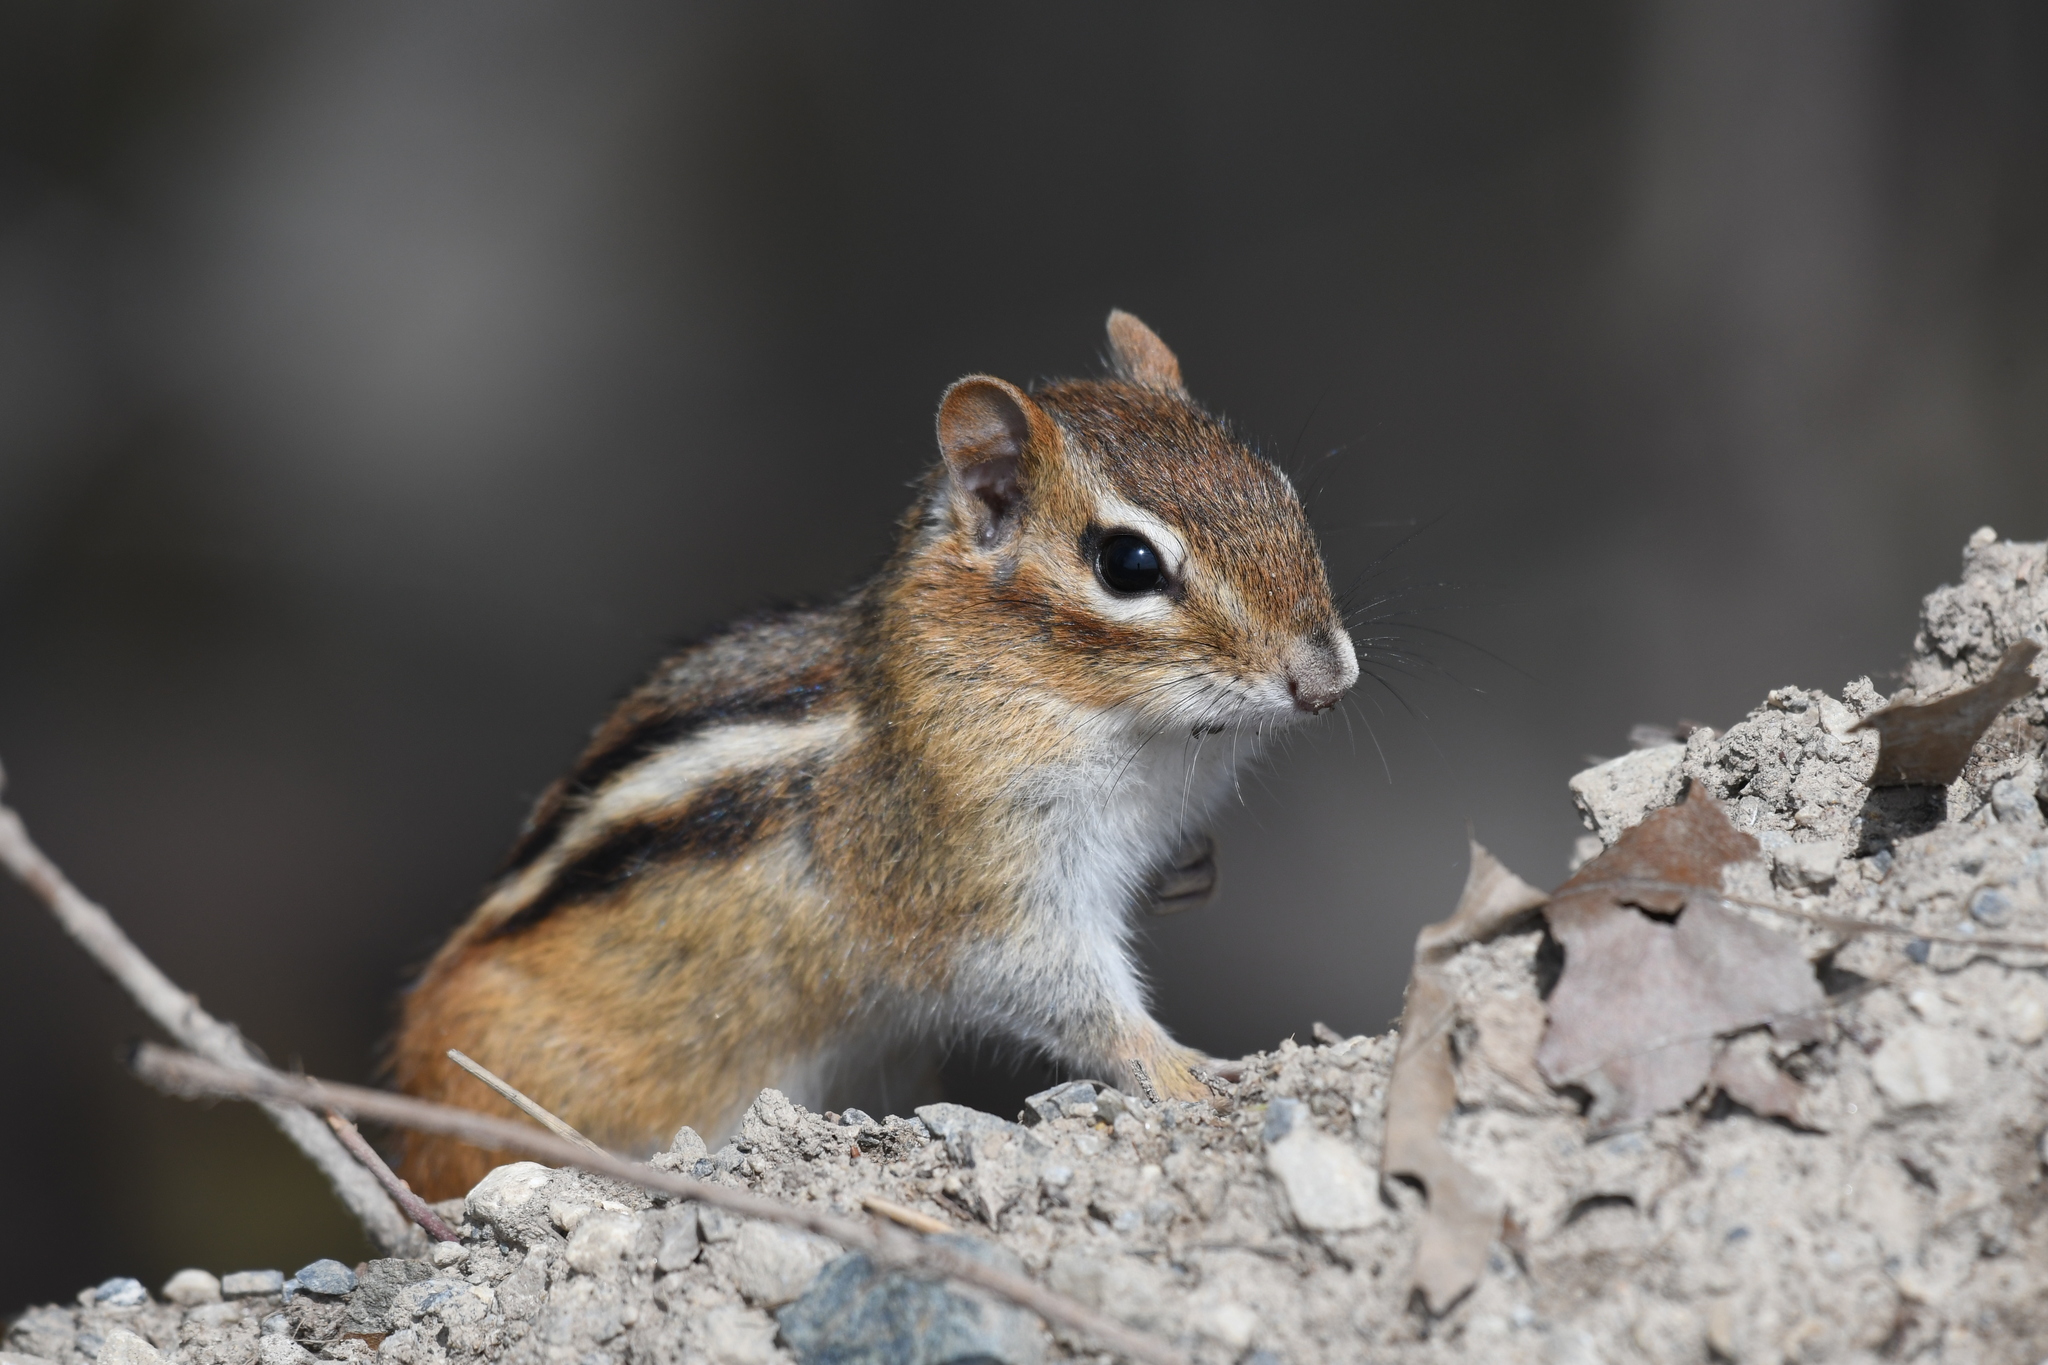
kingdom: Animalia
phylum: Chordata
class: Mammalia
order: Rodentia
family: Sciuridae
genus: Tamias
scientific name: Tamias striatus
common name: Eastern chipmunk
